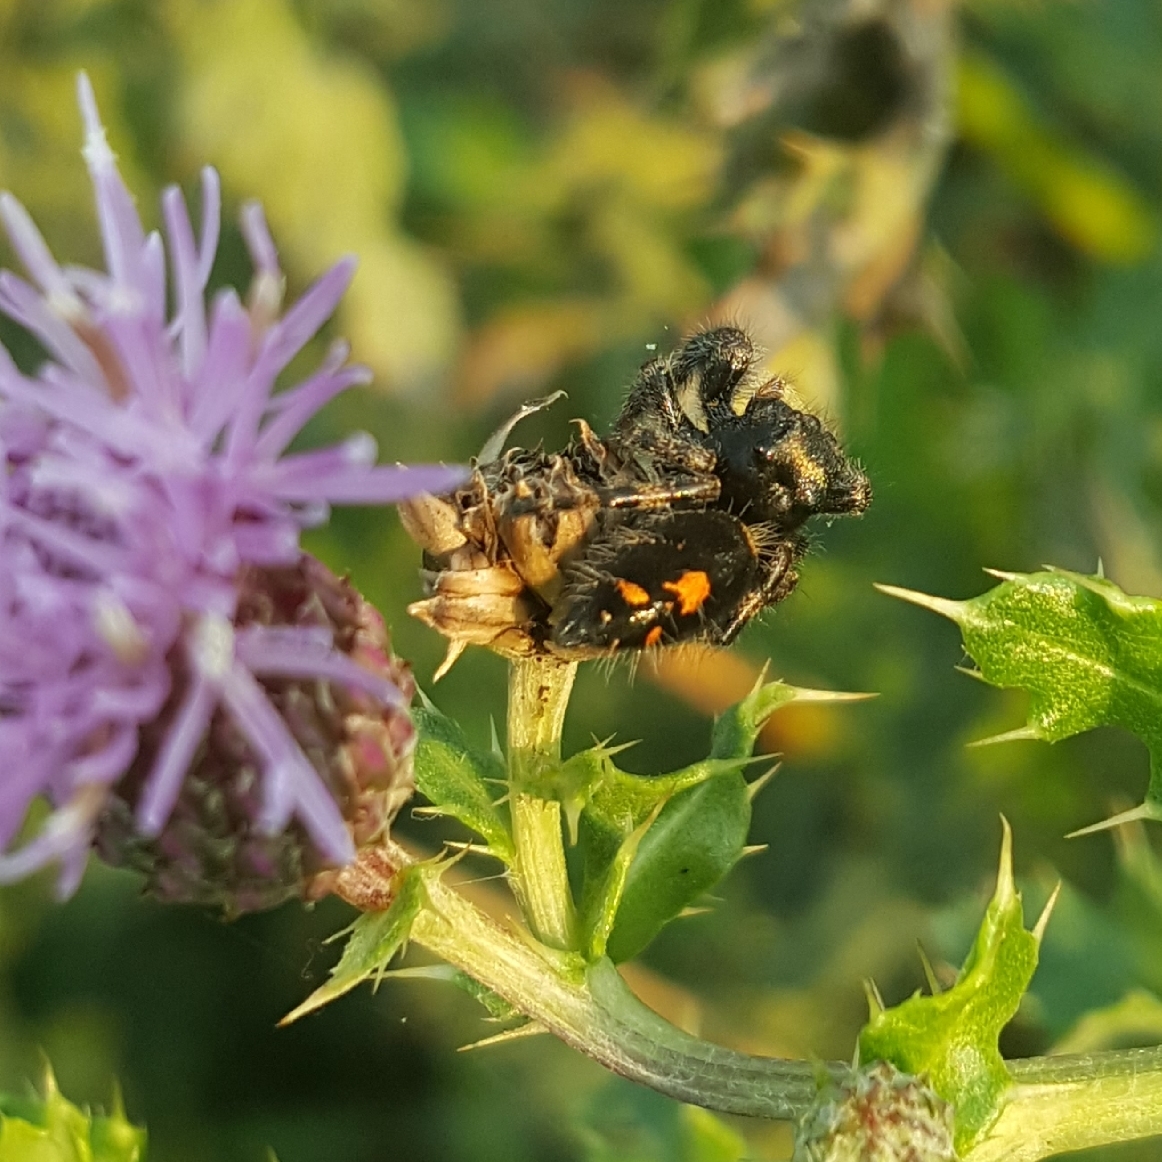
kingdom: Animalia
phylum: Arthropoda
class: Arachnida
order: Araneae
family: Salticidae
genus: Phidippus
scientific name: Phidippus audax
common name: Bold jumper
